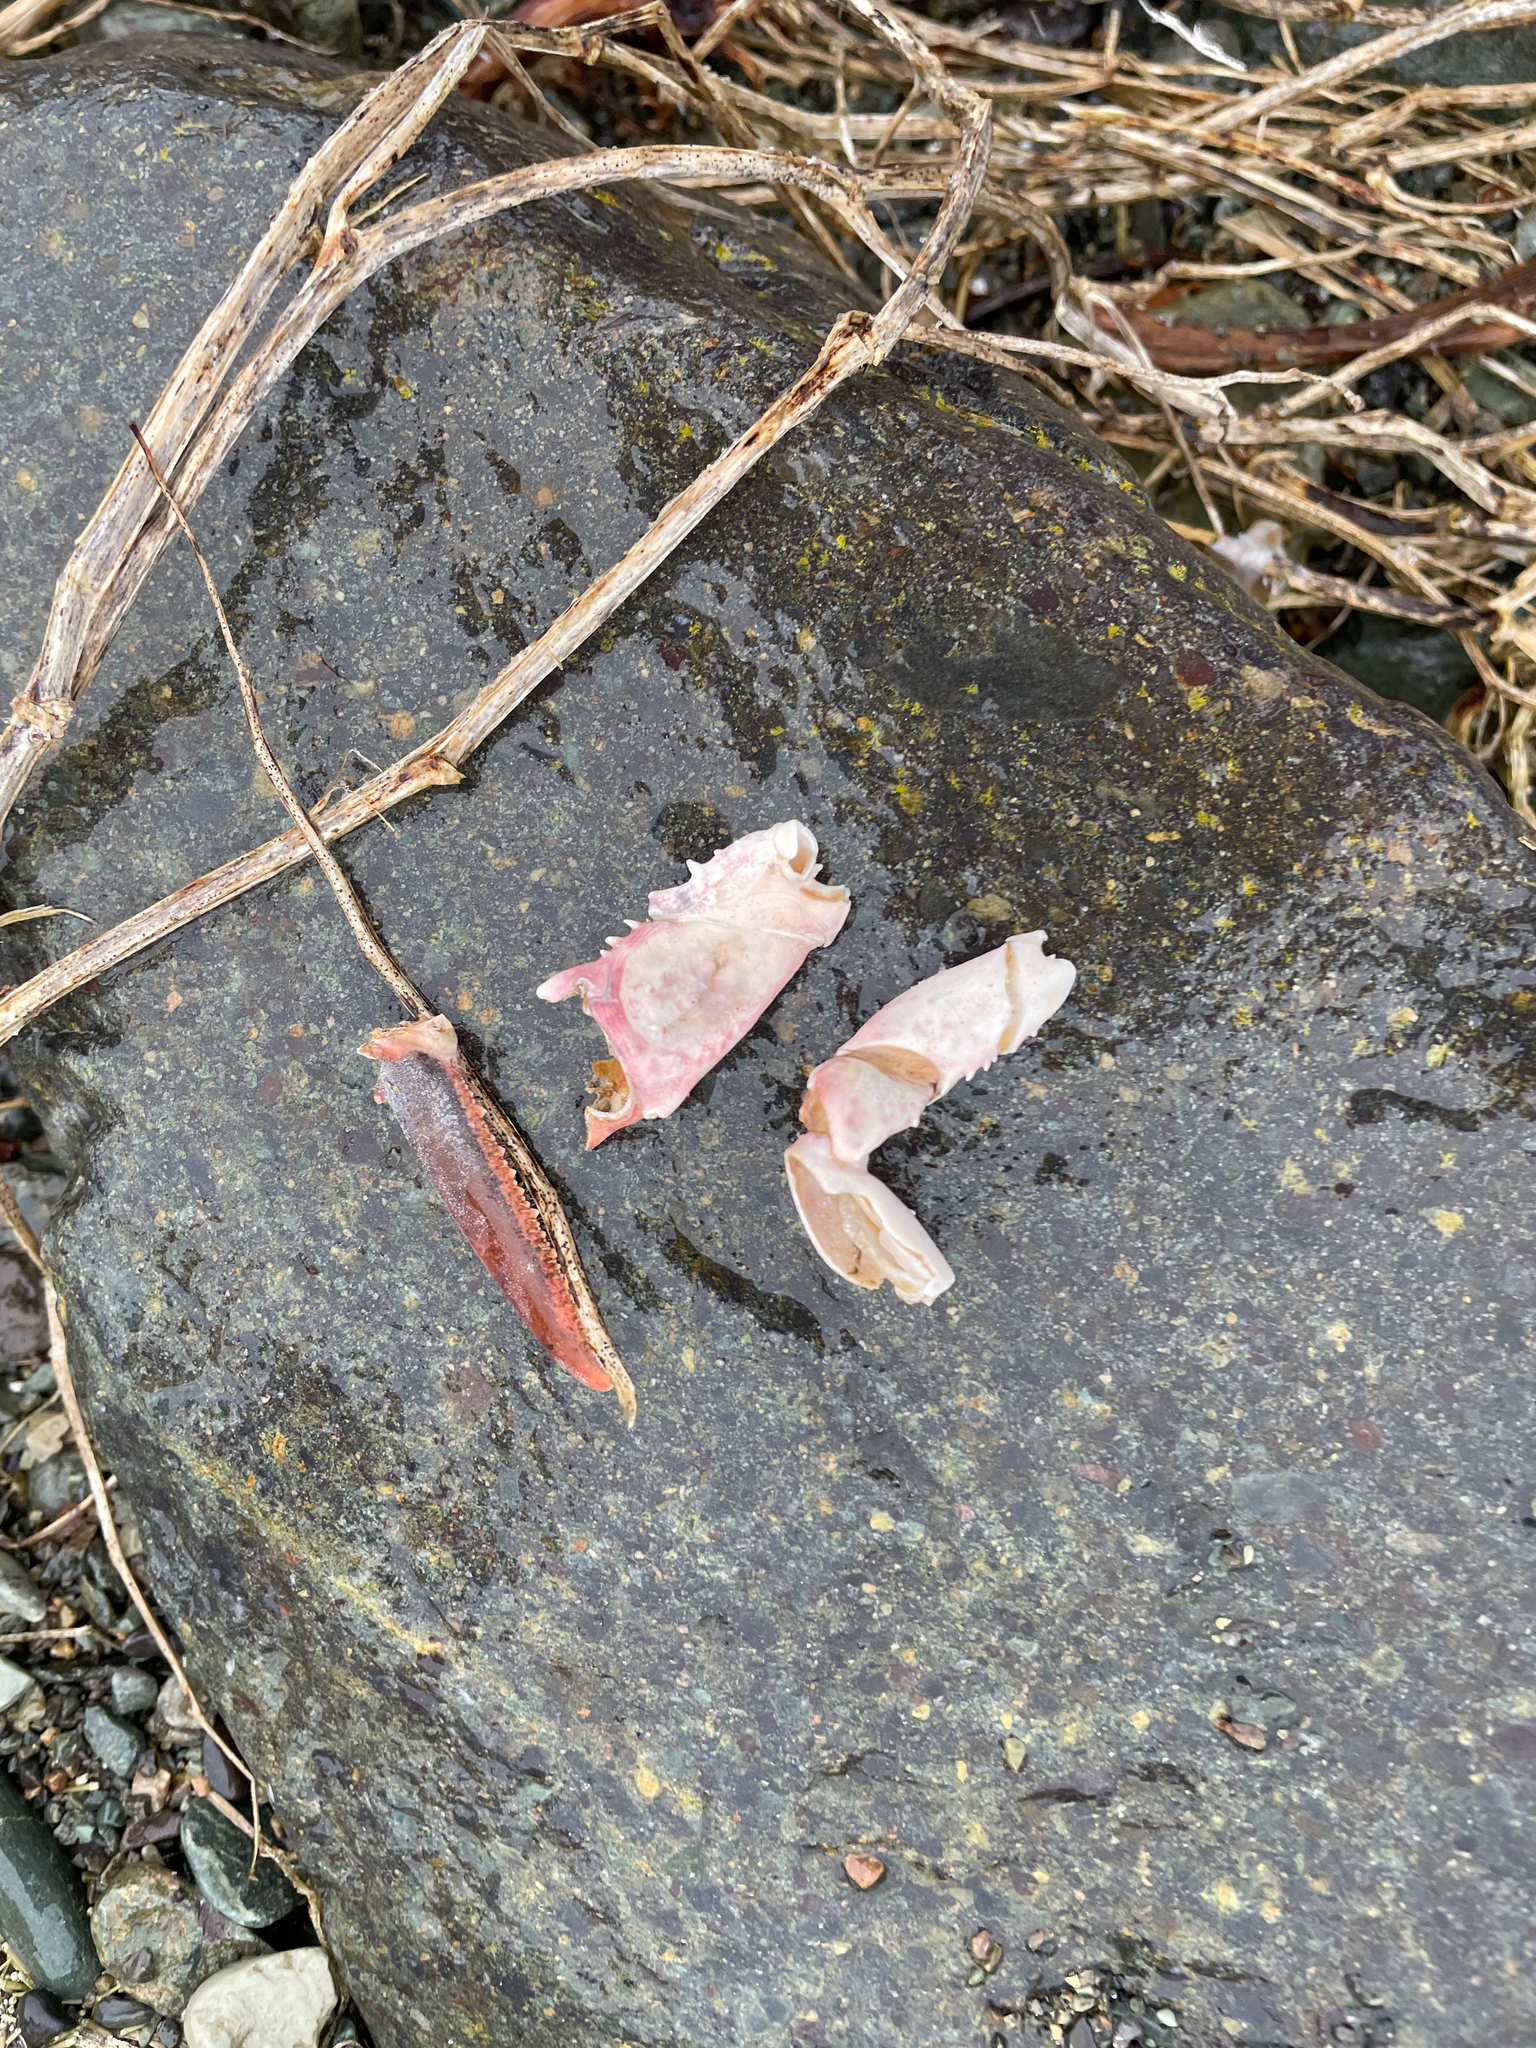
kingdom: Animalia
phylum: Arthropoda
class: Malacostraca
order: Decapoda
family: Nephropidae
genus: Homarus
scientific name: Homarus americanus
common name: American lobster
